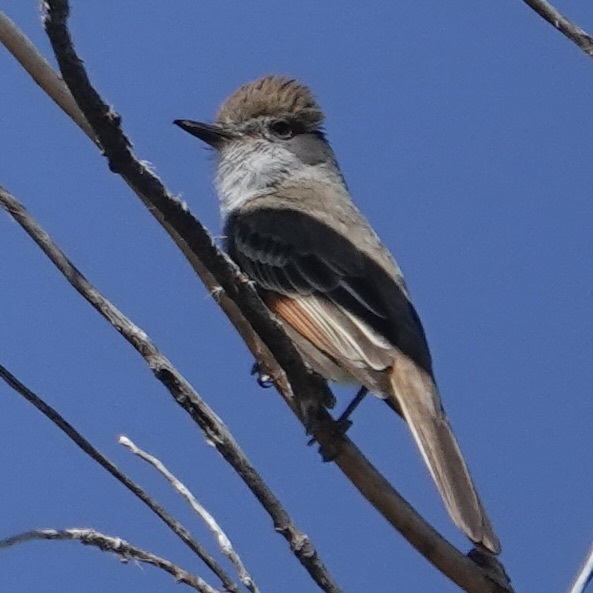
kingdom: Animalia
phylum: Chordata
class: Aves
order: Passeriformes
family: Tyrannidae
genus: Myiarchus
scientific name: Myiarchus tyrannulus
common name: Brown-crested flycatcher
